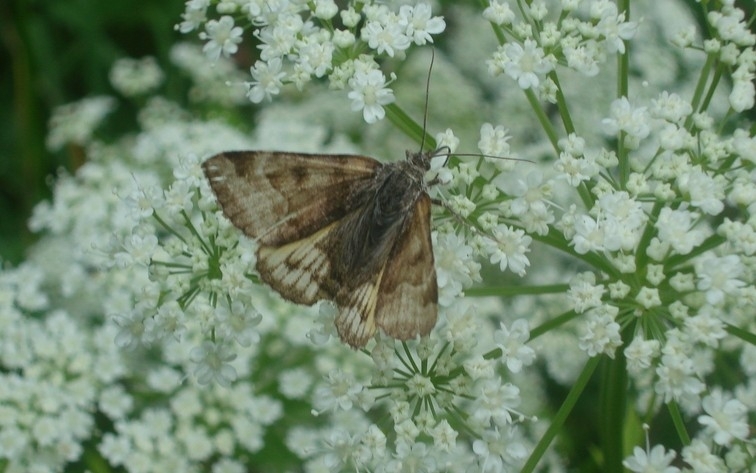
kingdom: Animalia
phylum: Arthropoda
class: Insecta
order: Lepidoptera
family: Erebidae
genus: Euclidia
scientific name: Euclidia glyphica
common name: Burnet companion
